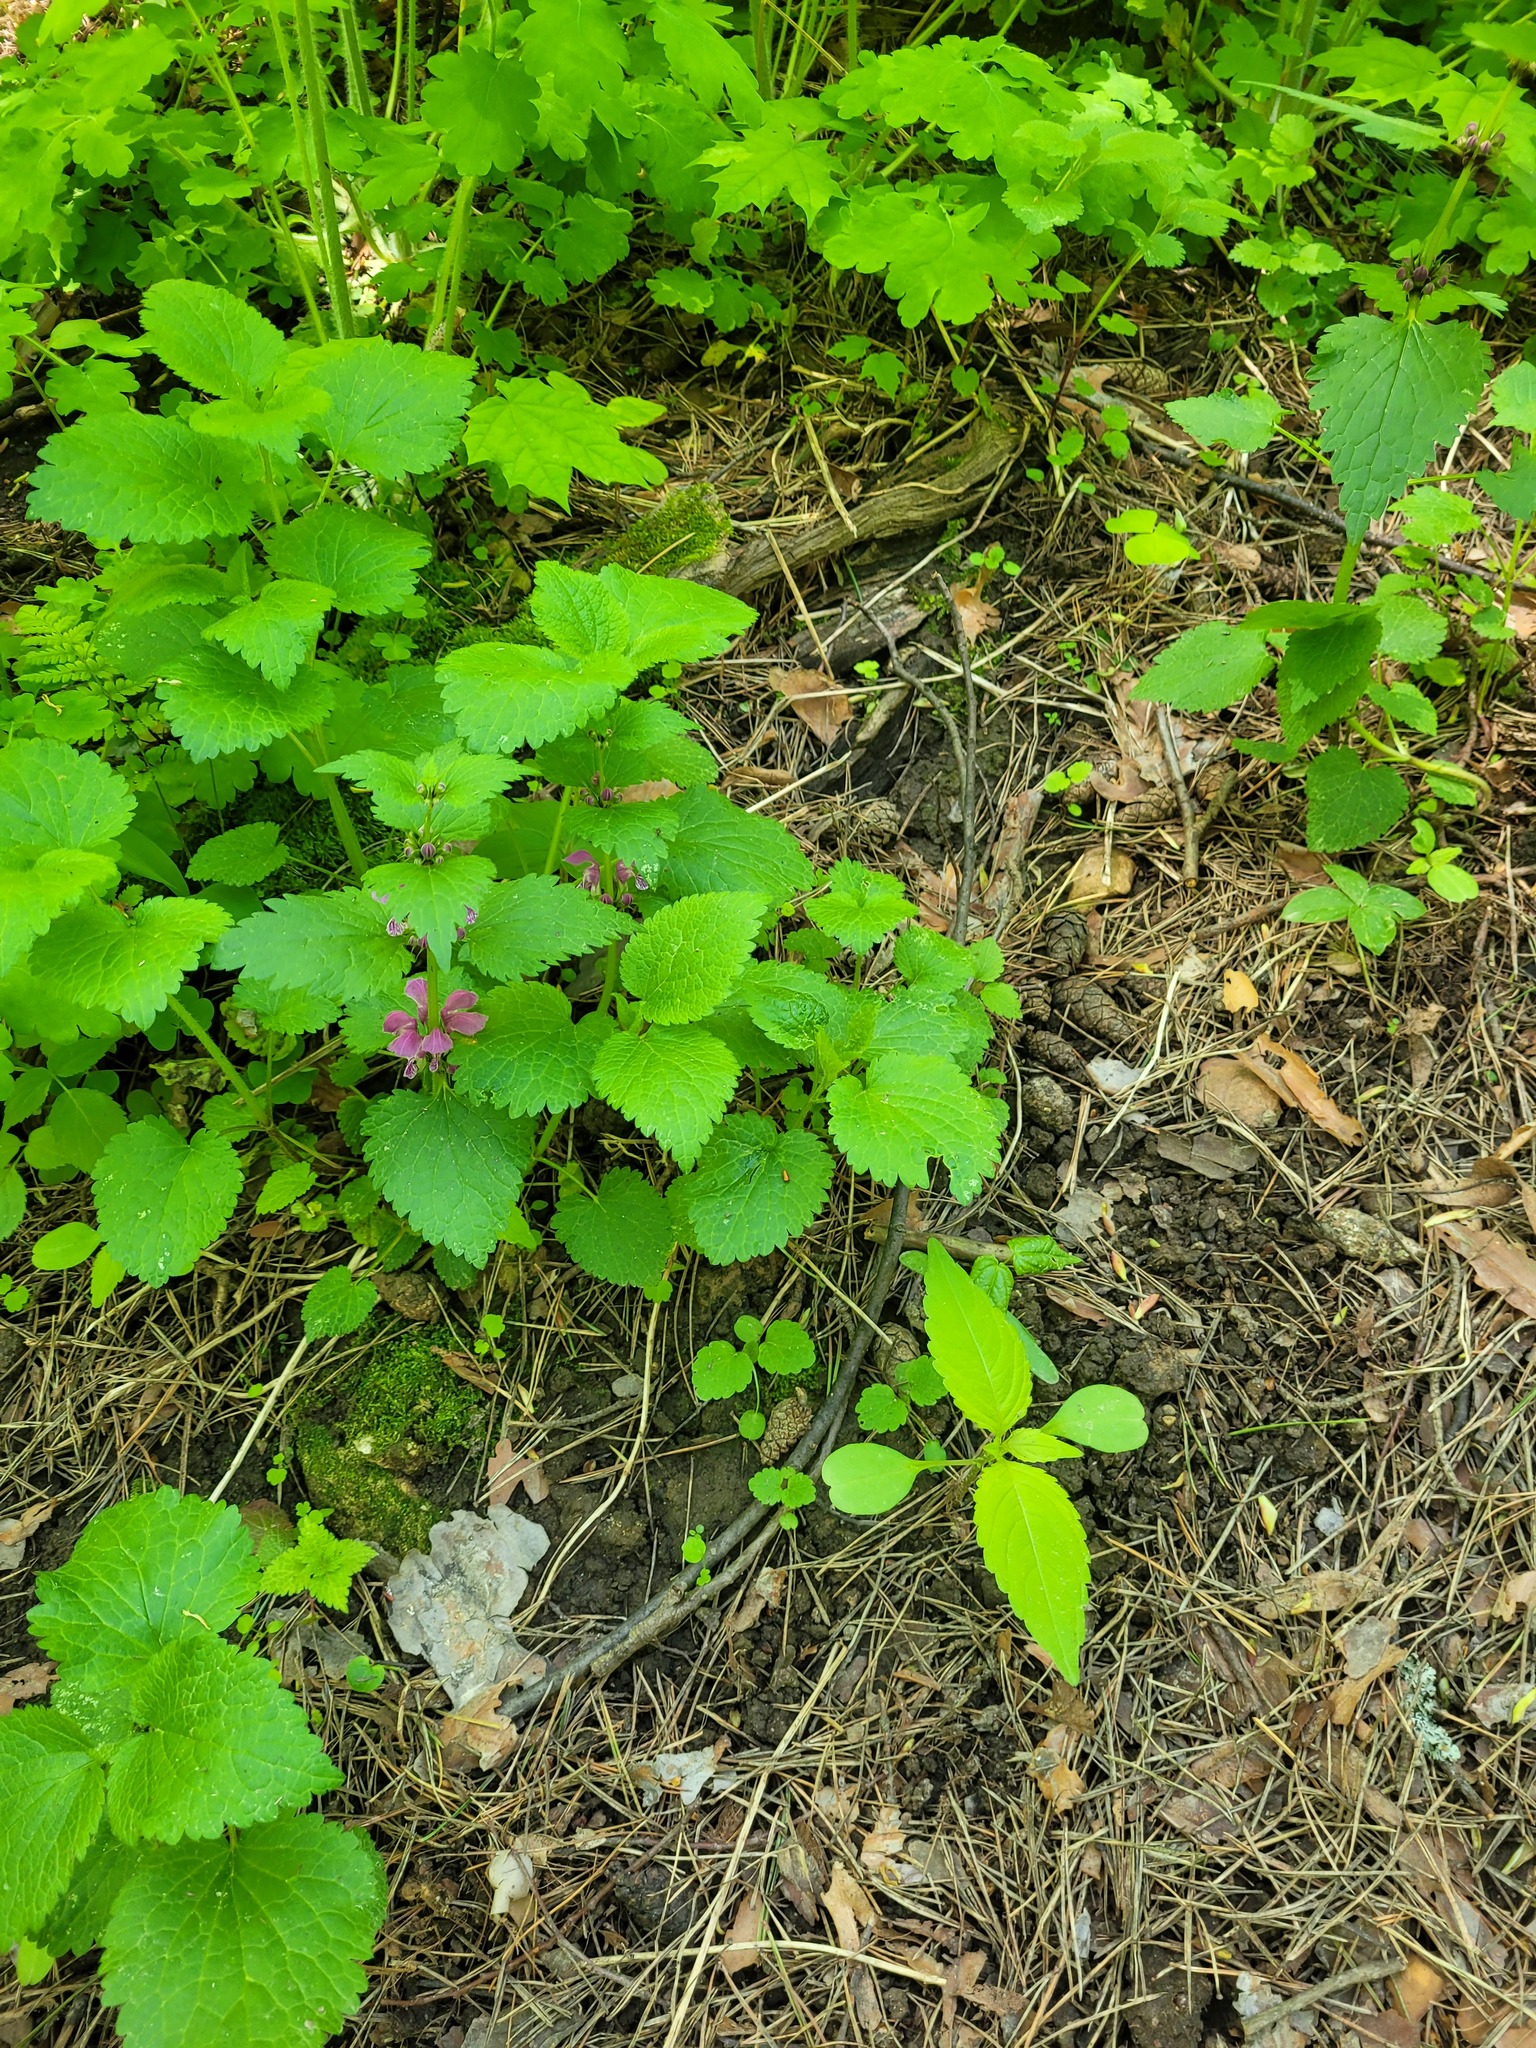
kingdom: Plantae
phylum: Tracheophyta
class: Magnoliopsida
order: Lamiales
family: Lamiaceae
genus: Lamium
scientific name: Lamium maculatum
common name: Spotted dead-nettle
